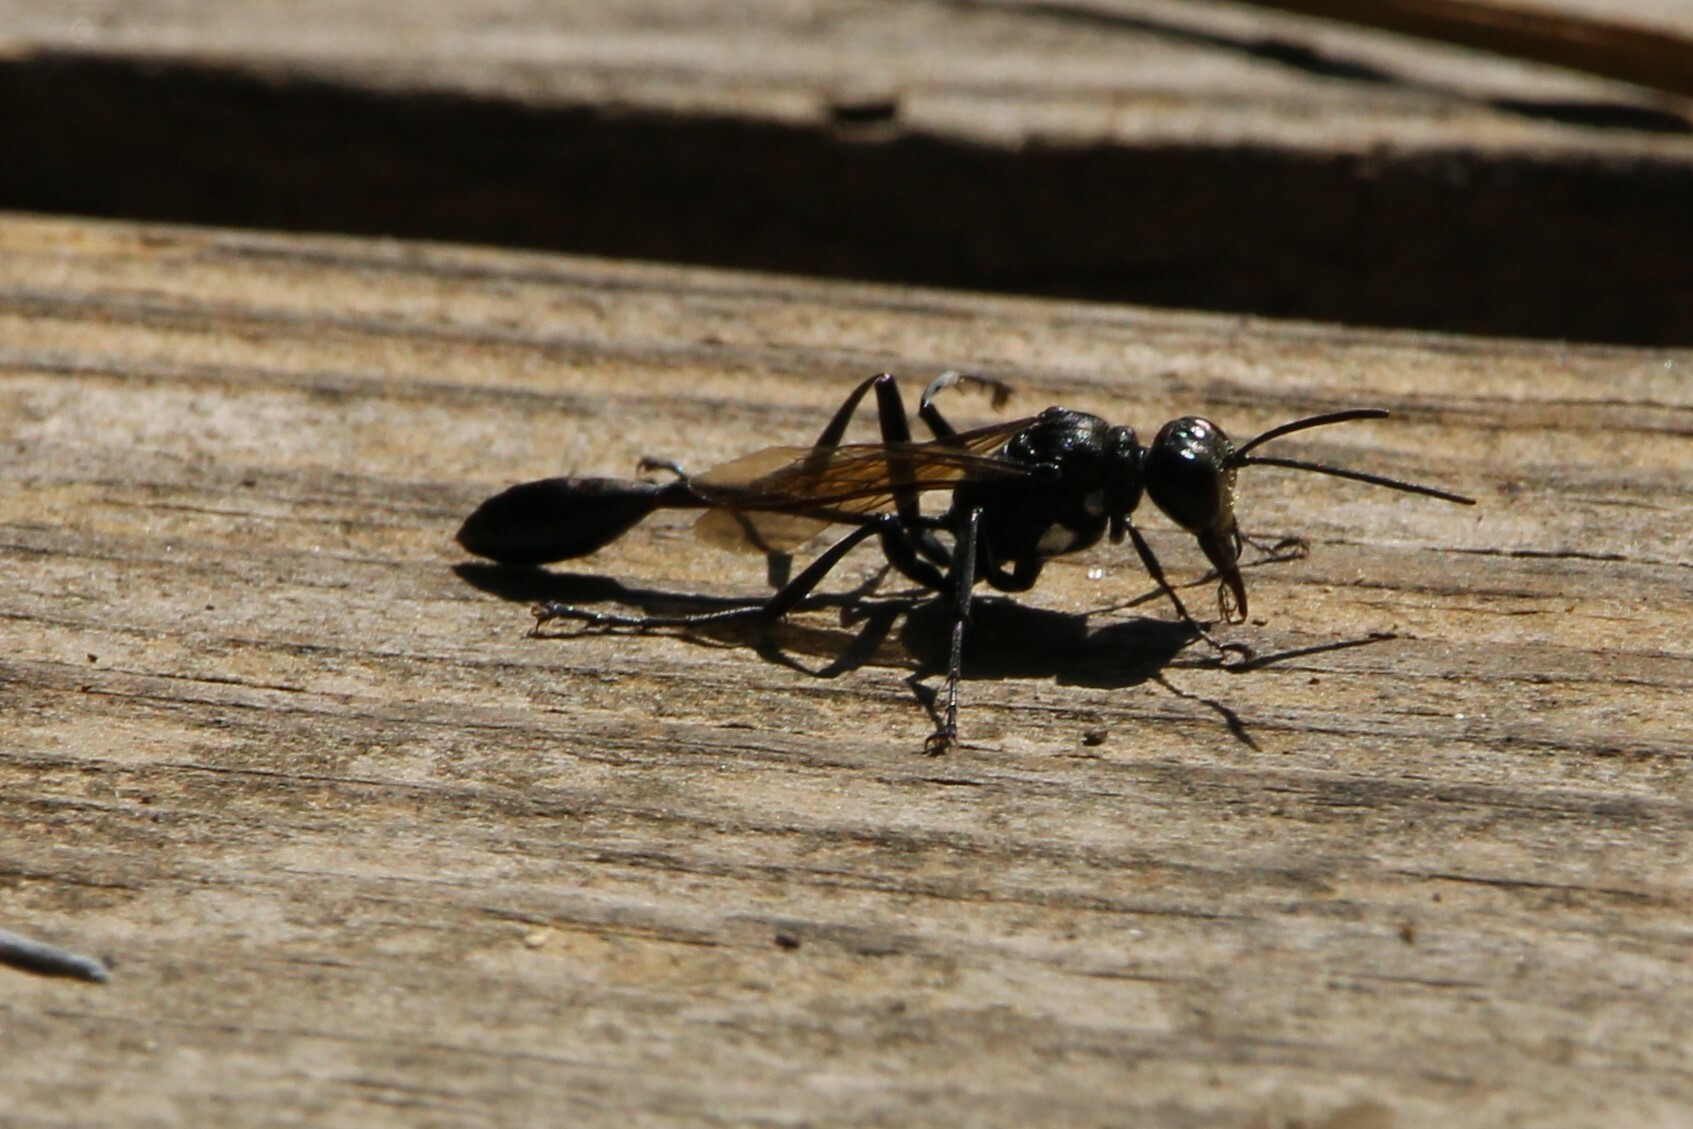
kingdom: Animalia
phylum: Arthropoda
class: Insecta
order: Hymenoptera
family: Sphecidae
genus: Eremnophila
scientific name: Eremnophila aureonotata
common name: Gold-marked thread-waisted wasp
